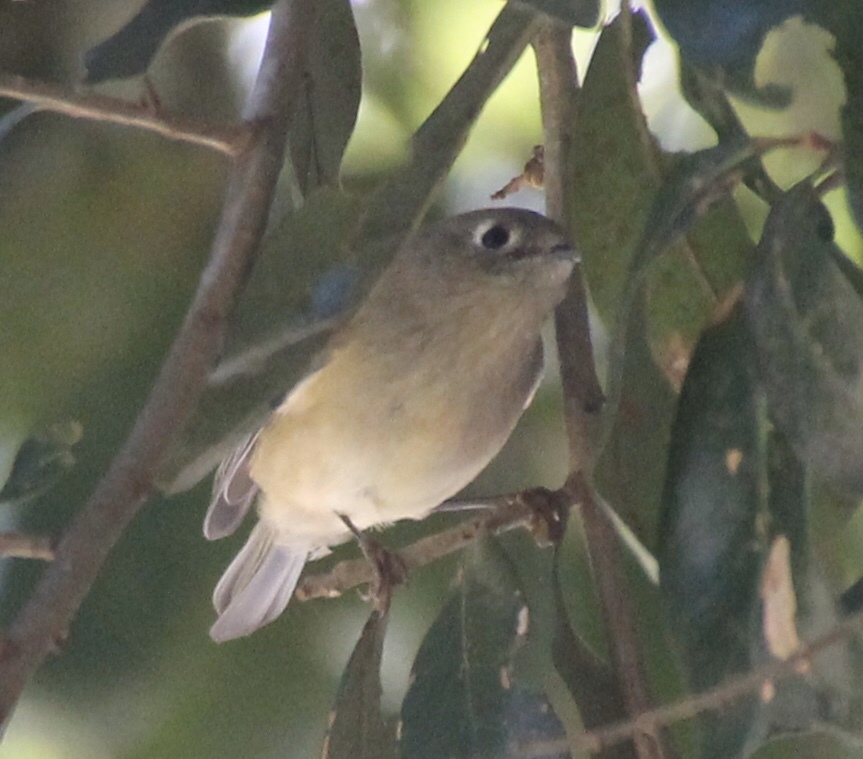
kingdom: Animalia
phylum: Chordata
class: Aves
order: Passeriformes
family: Regulidae
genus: Regulus
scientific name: Regulus calendula
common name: Ruby-crowned kinglet
